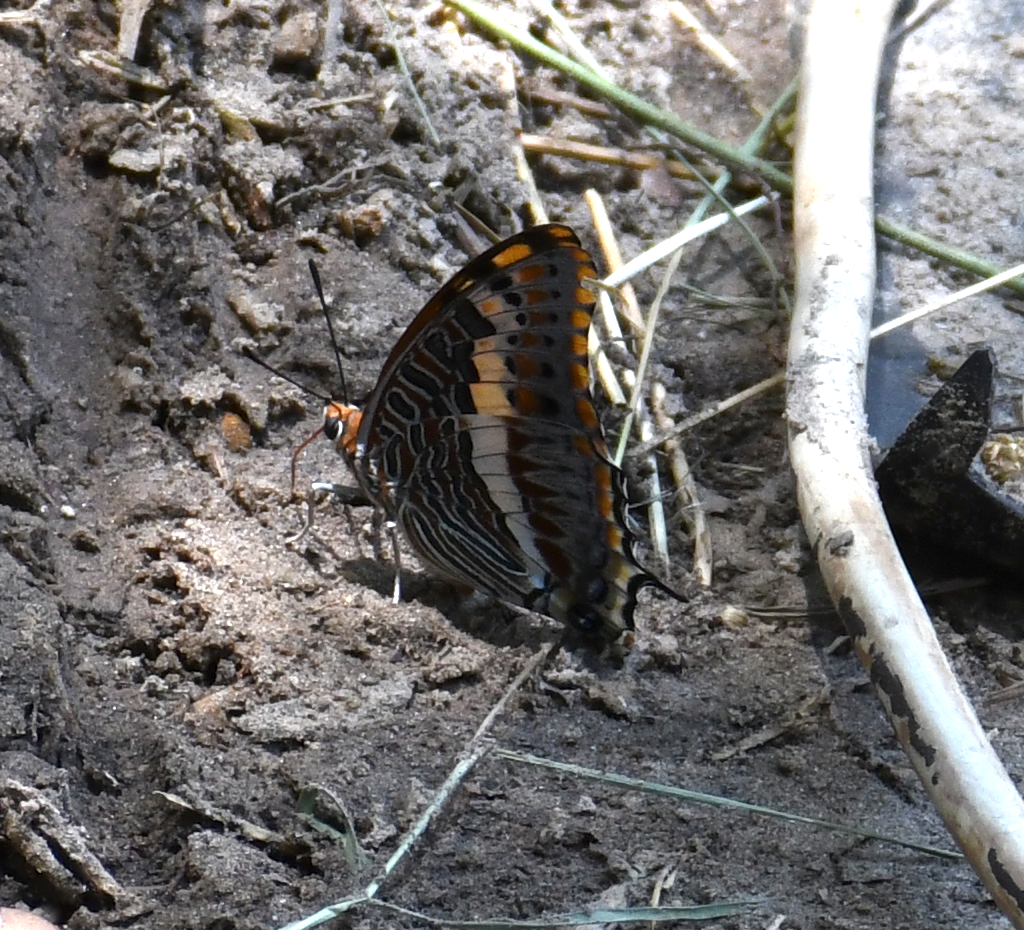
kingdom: Animalia
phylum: Arthropoda
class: Insecta
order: Lepidoptera
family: Nymphalidae
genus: Charaxes
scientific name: Charaxes jasius
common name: Two tailed pasha
